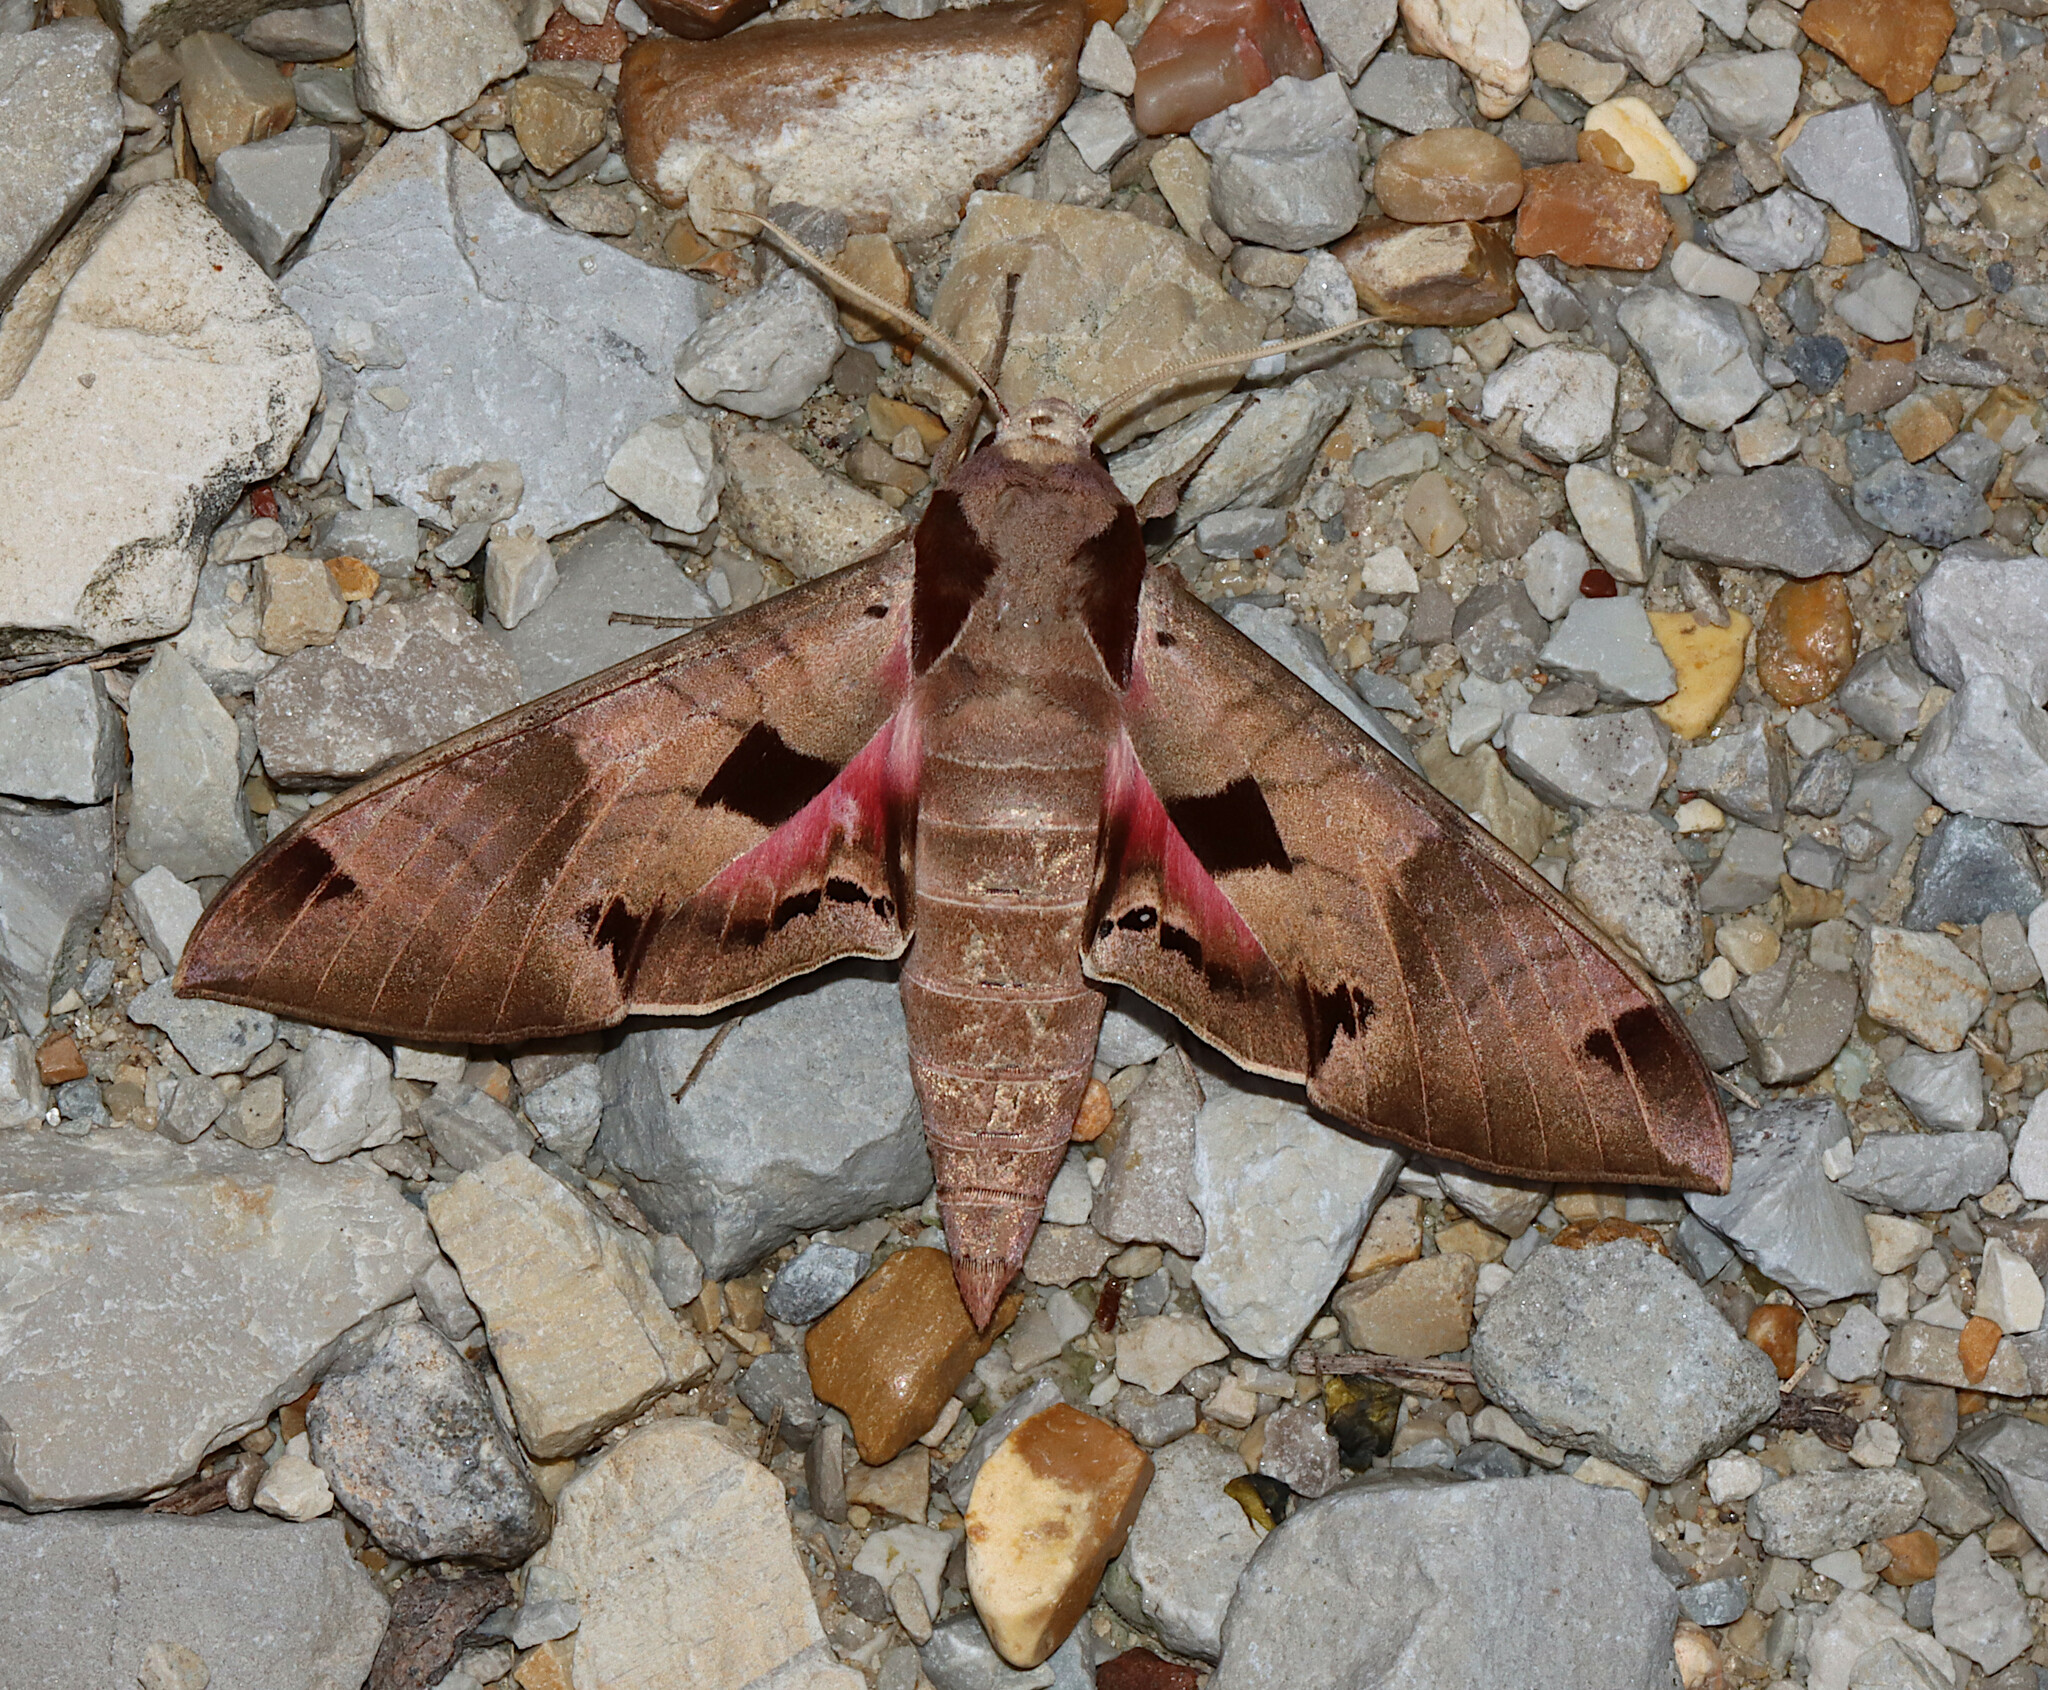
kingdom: Animalia
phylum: Arthropoda
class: Insecta
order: Lepidoptera
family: Sphingidae
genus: Eumorpha
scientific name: Eumorpha achemon
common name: Achemon sphinx
